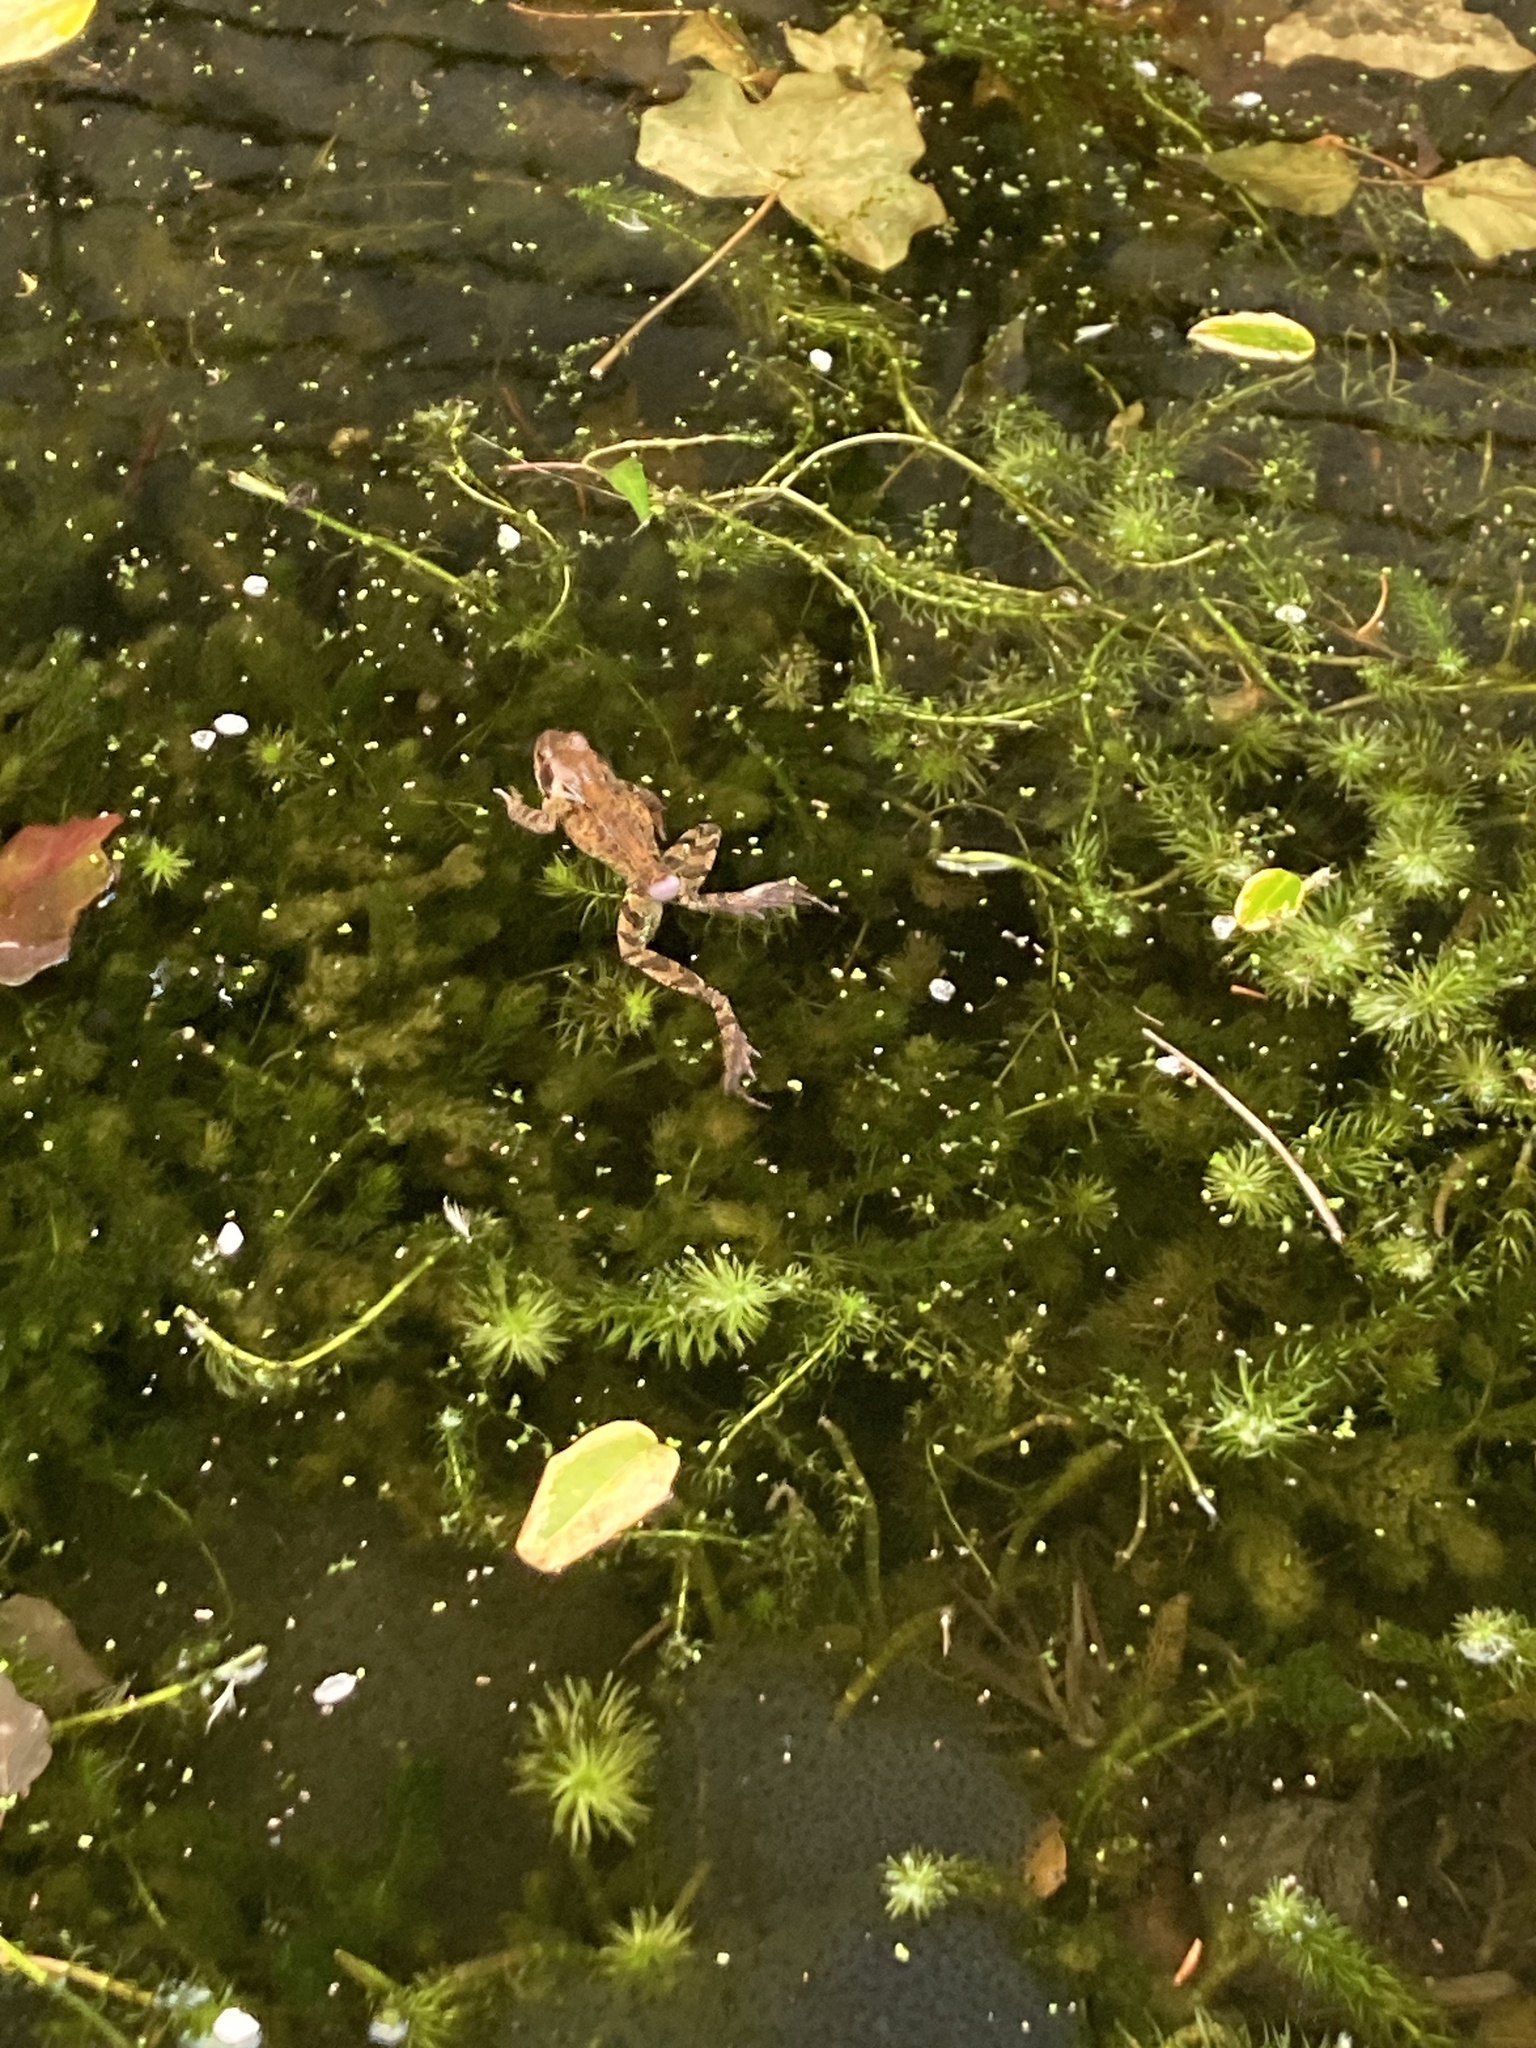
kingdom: Animalia
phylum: Chordata
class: Amphibia
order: Anura
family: Ranidae
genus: Rana
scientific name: Rana temporaria
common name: Common frog
